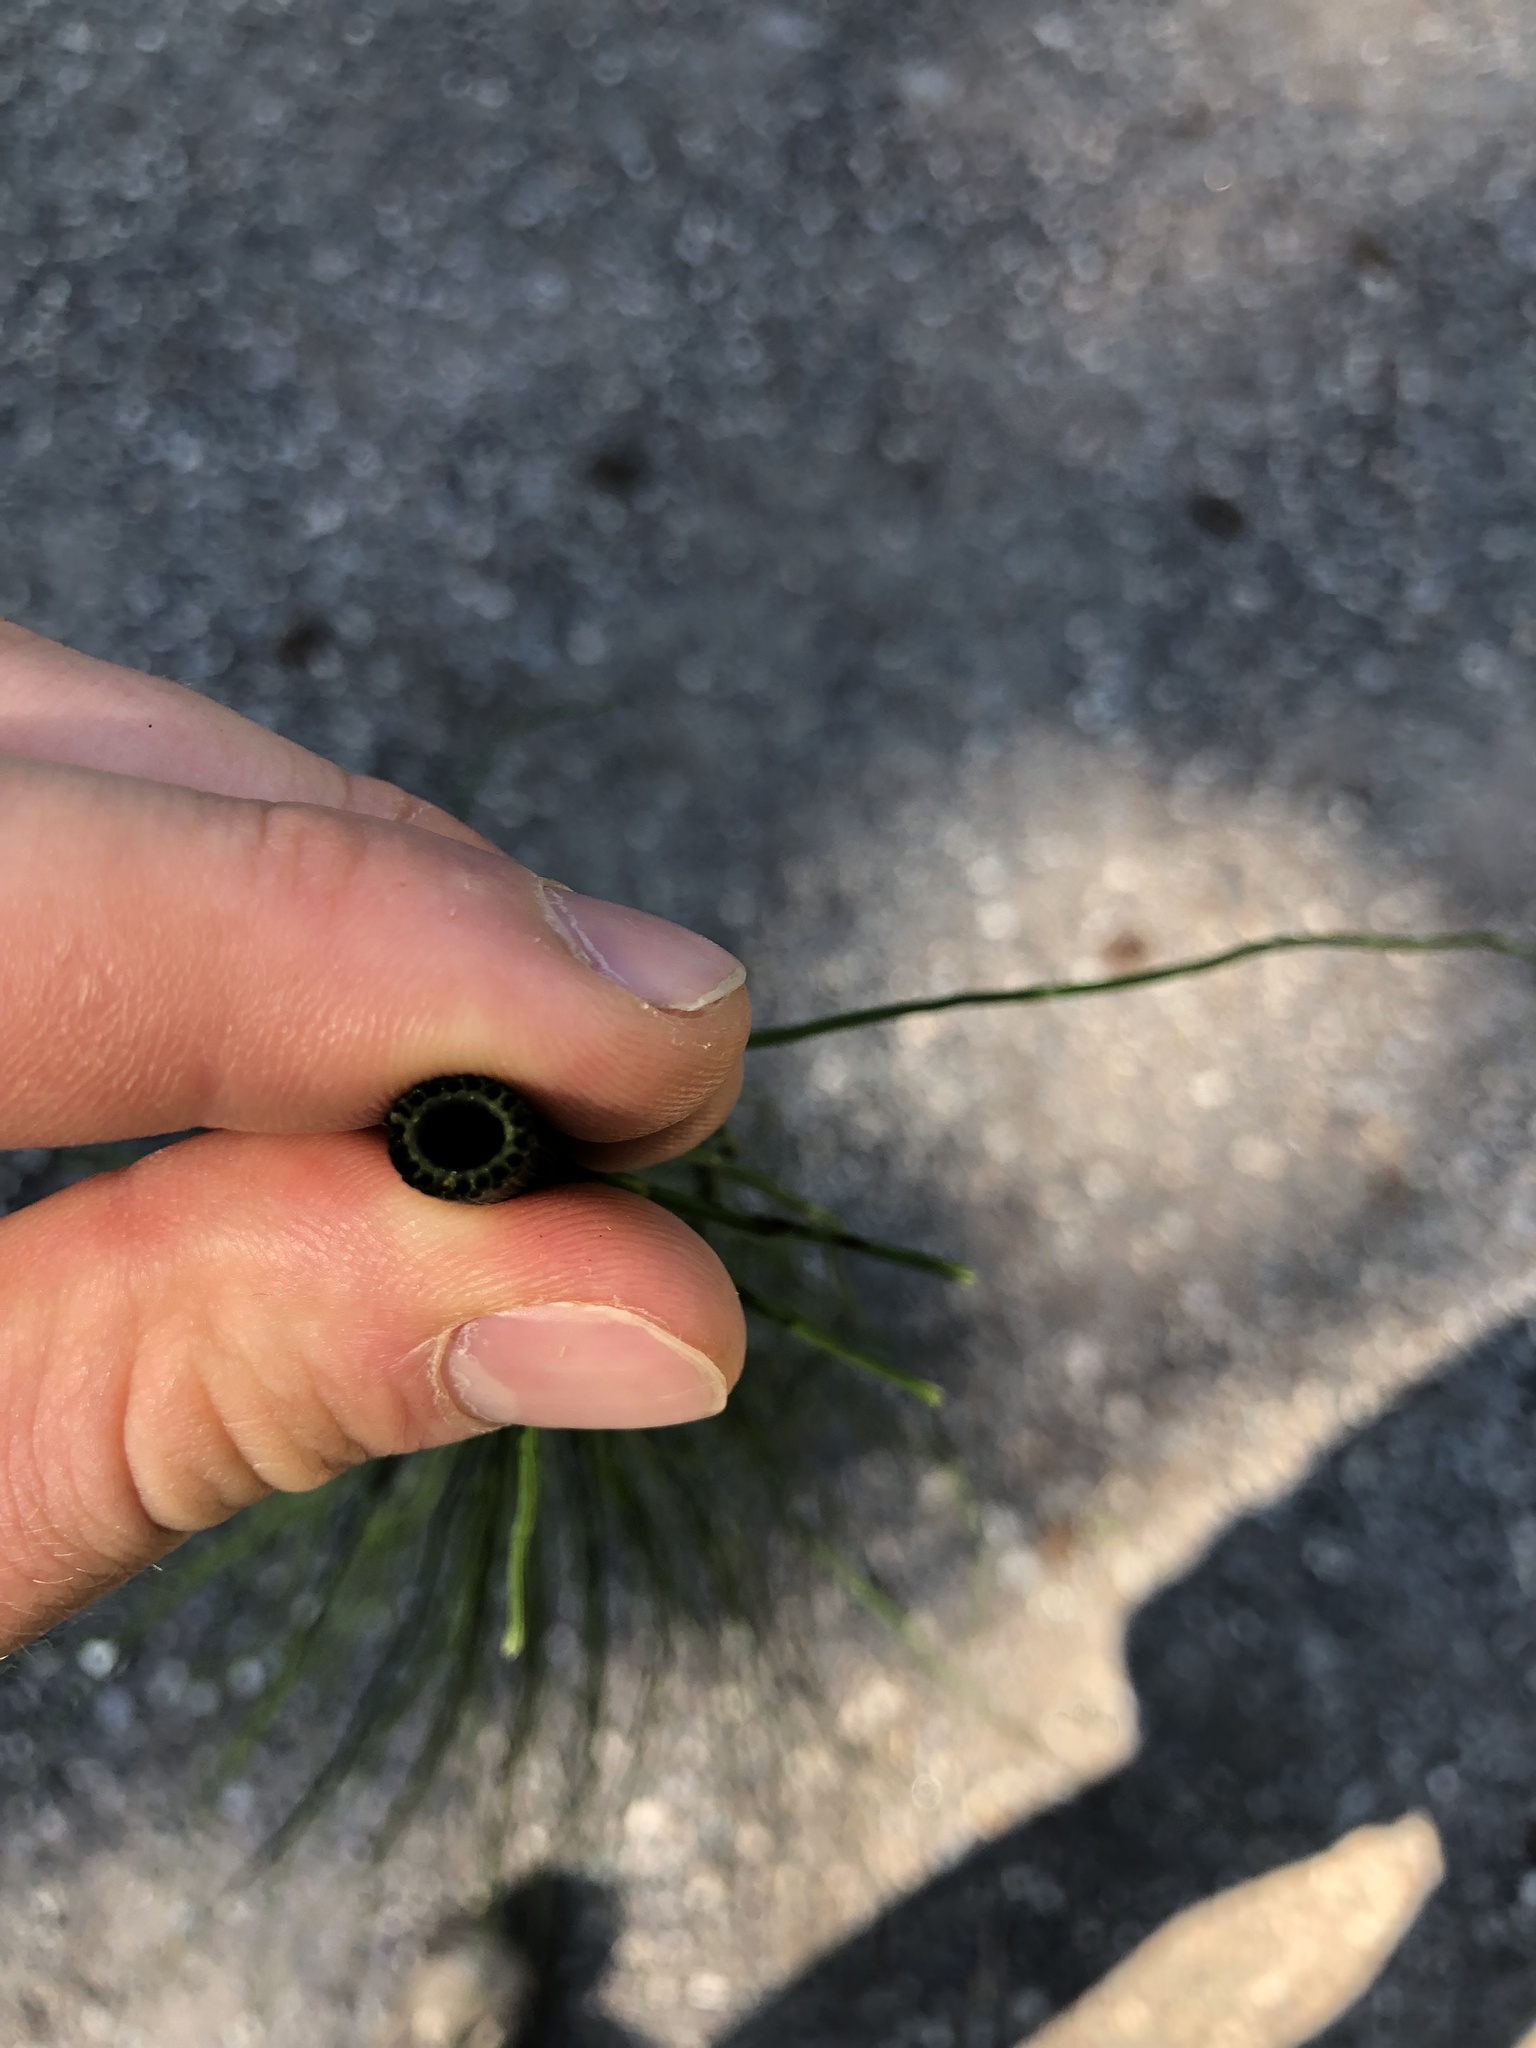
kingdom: Plantae
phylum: Tracheophyta
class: Polypodiopsida
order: Equisetales
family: Equisetaceae
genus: Equisetum
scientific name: Equisetum telmateia
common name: Great horsetail
